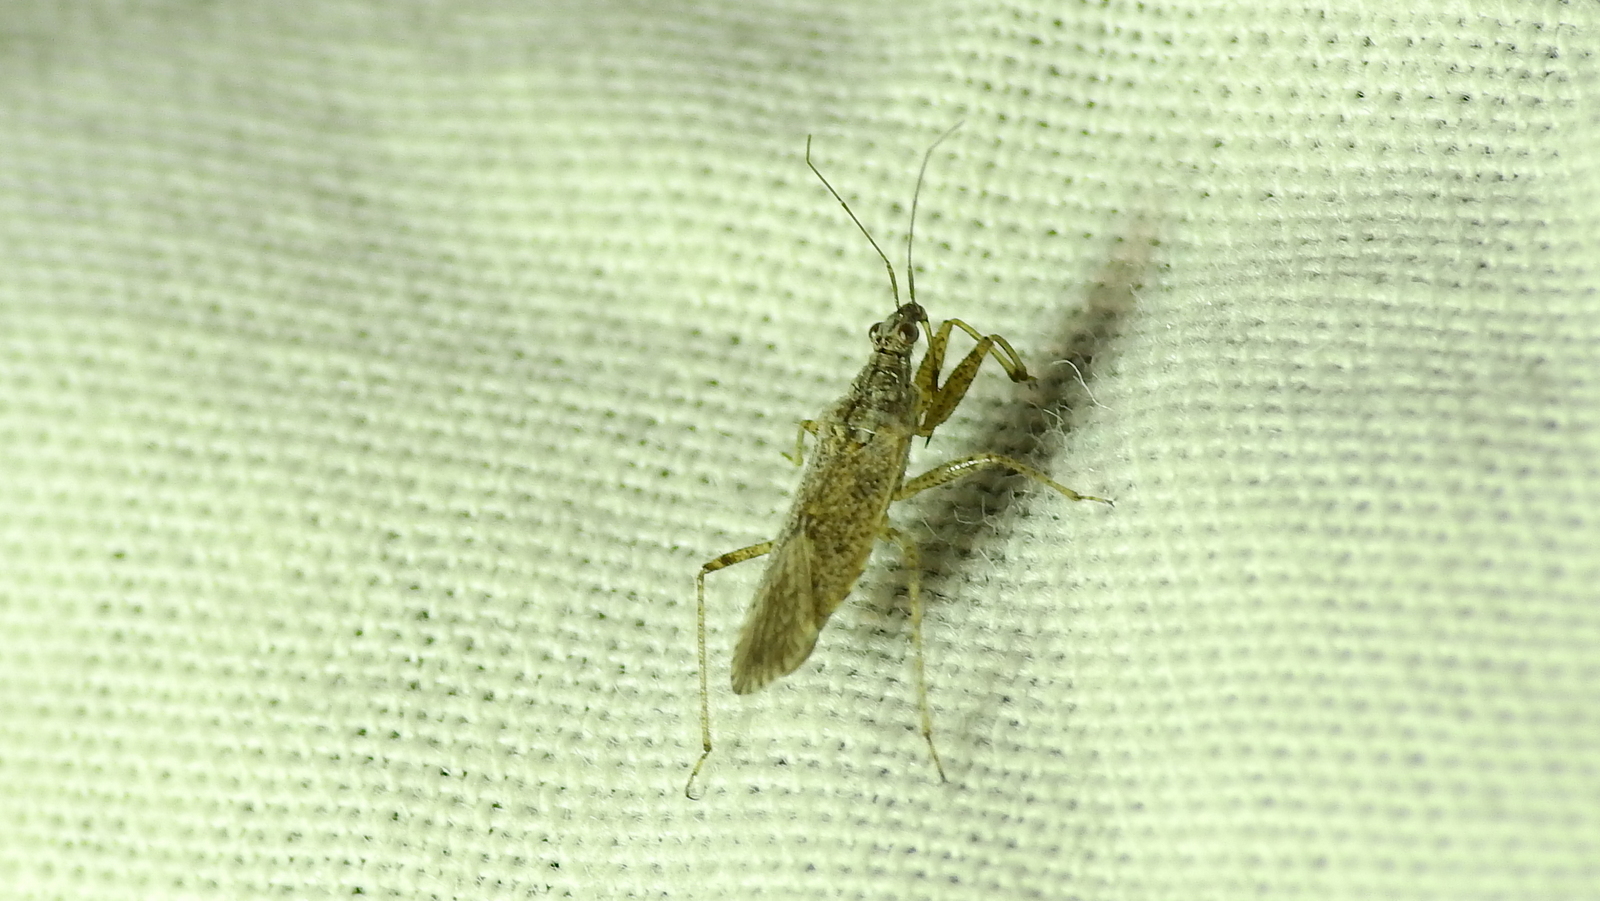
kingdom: Animalia
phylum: Arthropoda
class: Insecta
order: Hemiptera
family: Nabidae
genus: Nabis
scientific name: Nabis argentinus
